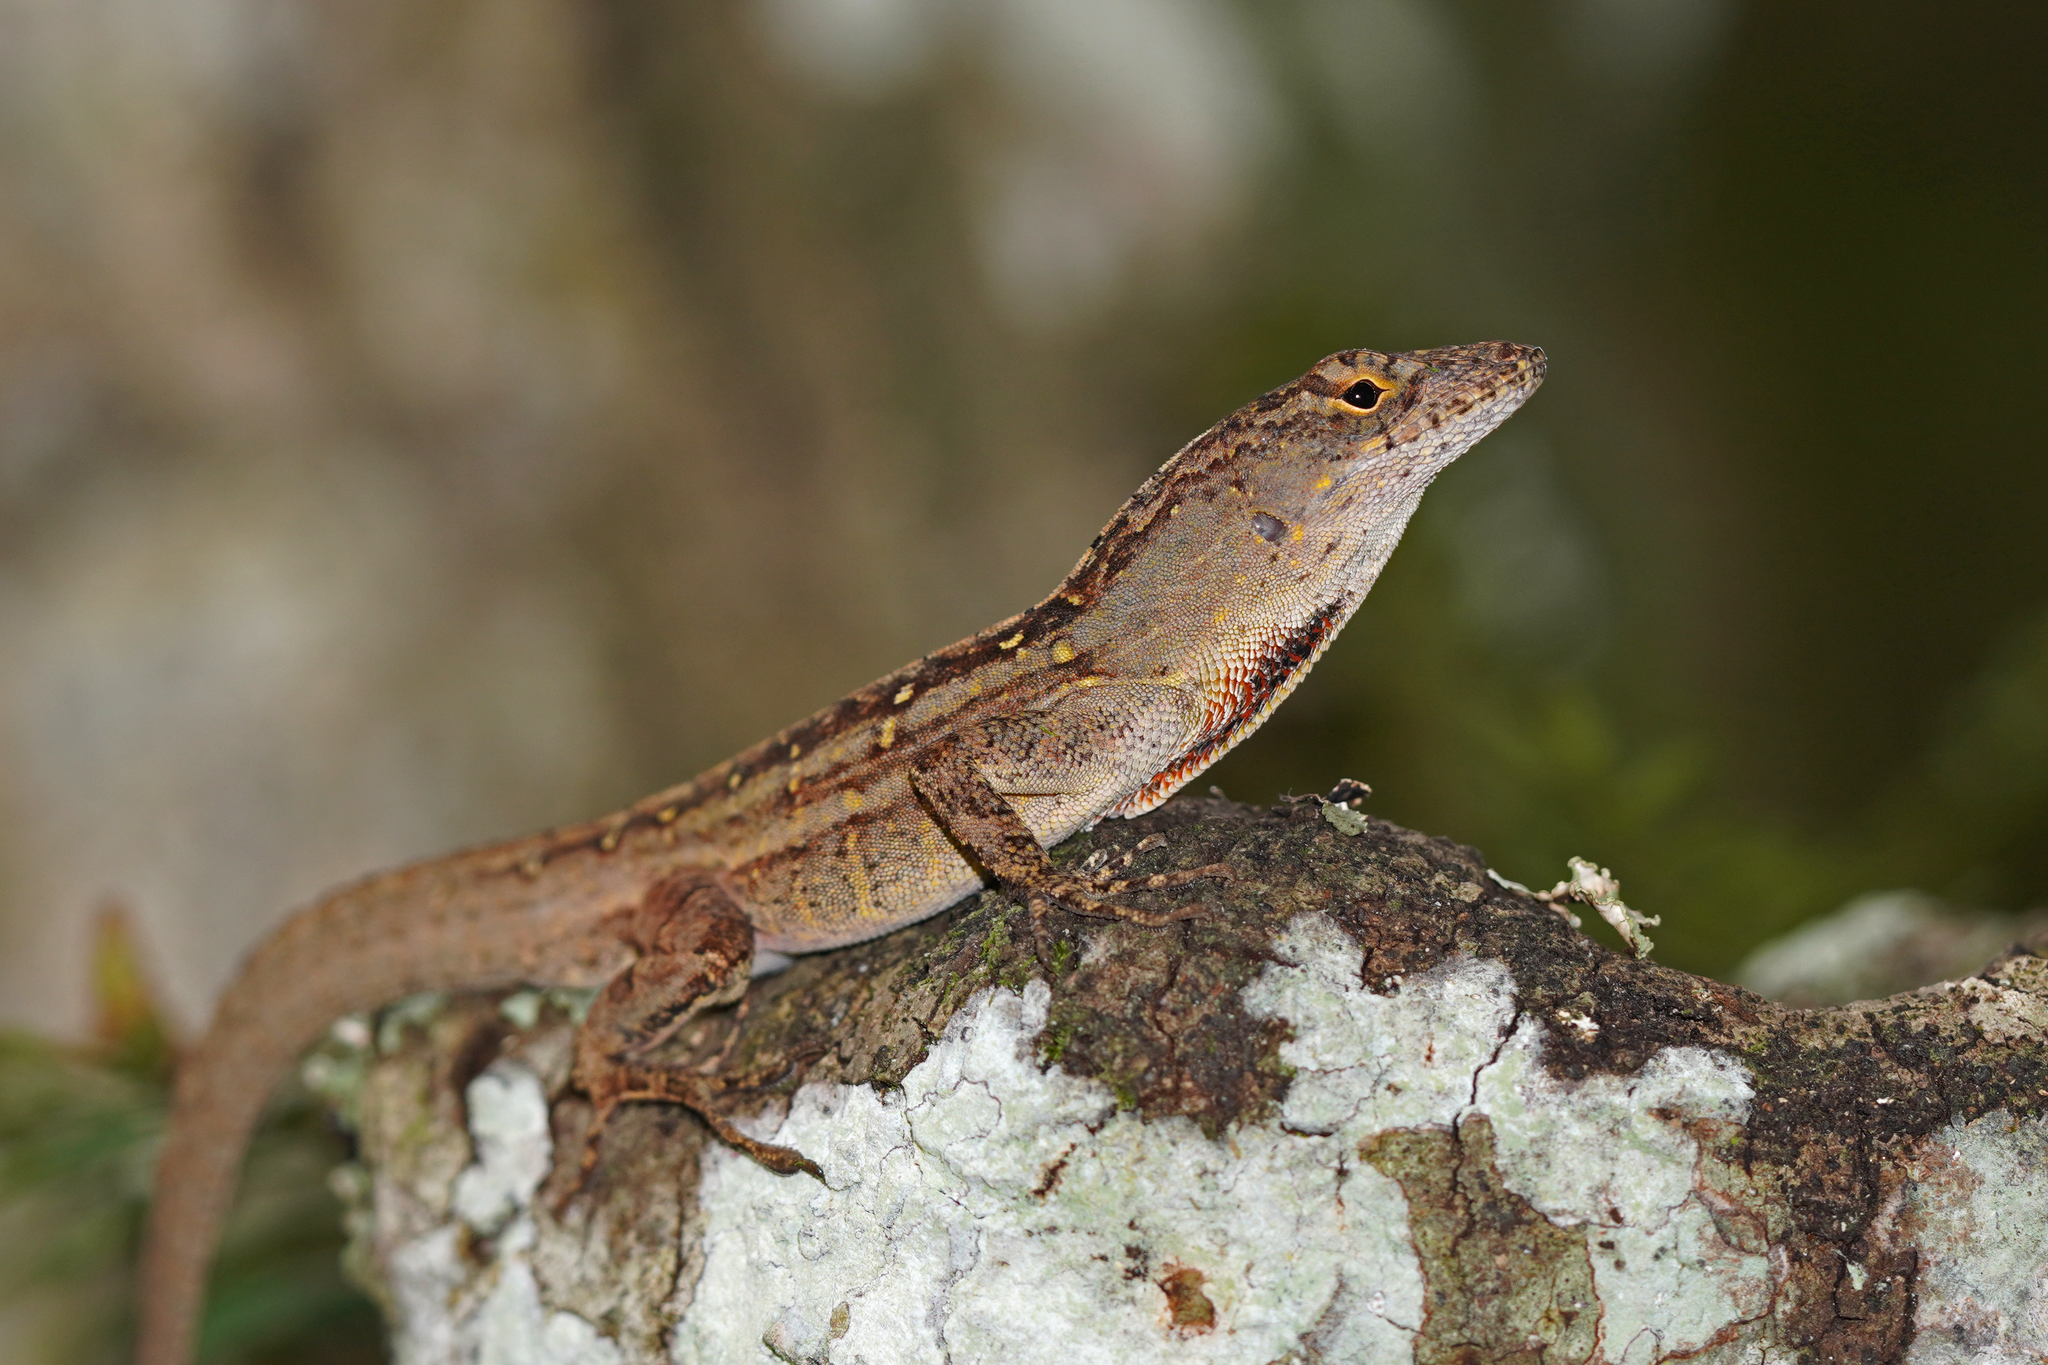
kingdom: Animalia
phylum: Chordata
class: Squamata
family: Dactyloidae
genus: Anolis
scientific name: Anolis sagrei
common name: Brown anole
